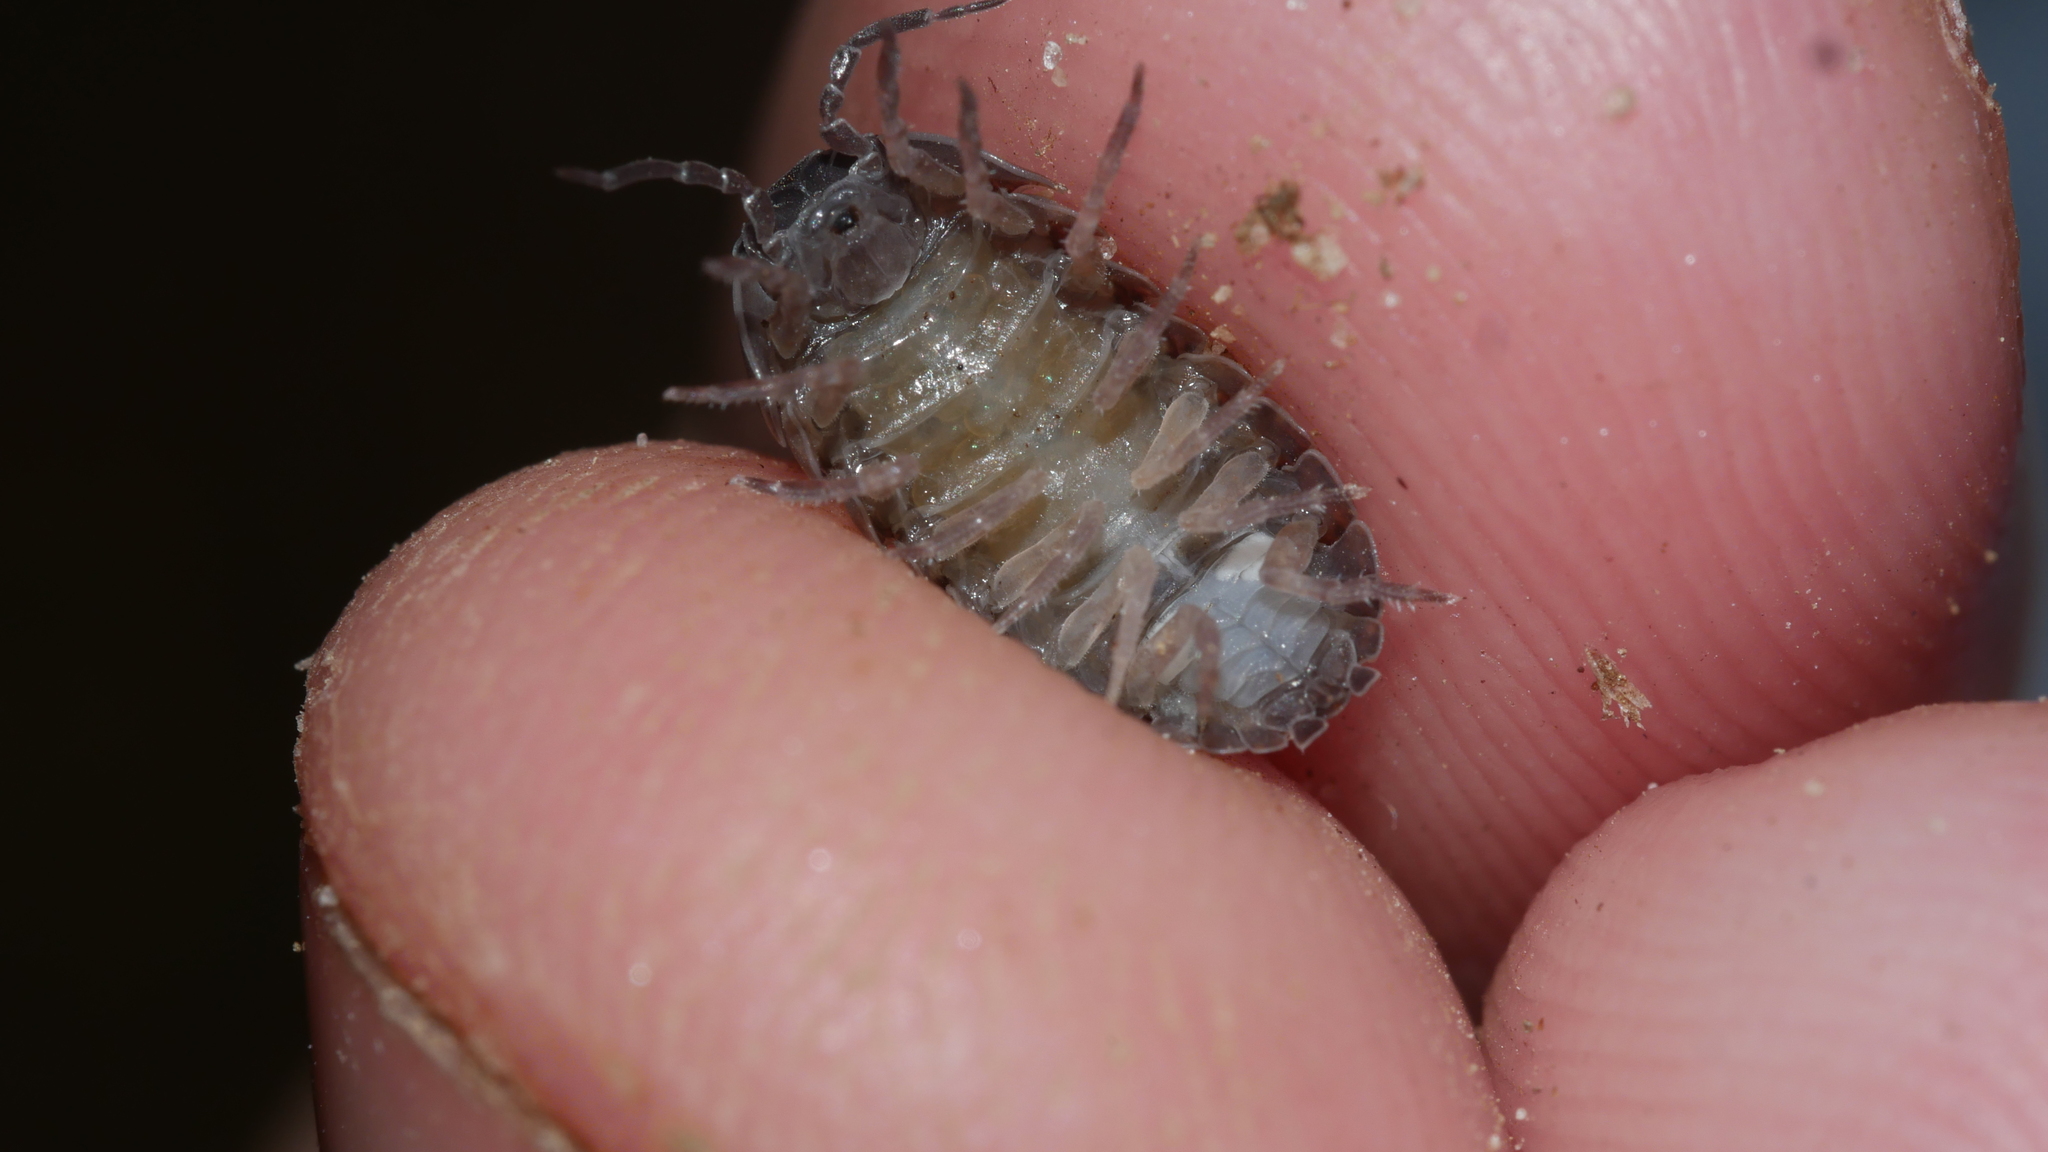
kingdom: Animalia
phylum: Arthropoda
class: Malacostraca
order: Isopoda
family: Armadillidiidae
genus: Armadillidium
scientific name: Armadillidium vulgare
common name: Common pill woodlouse
